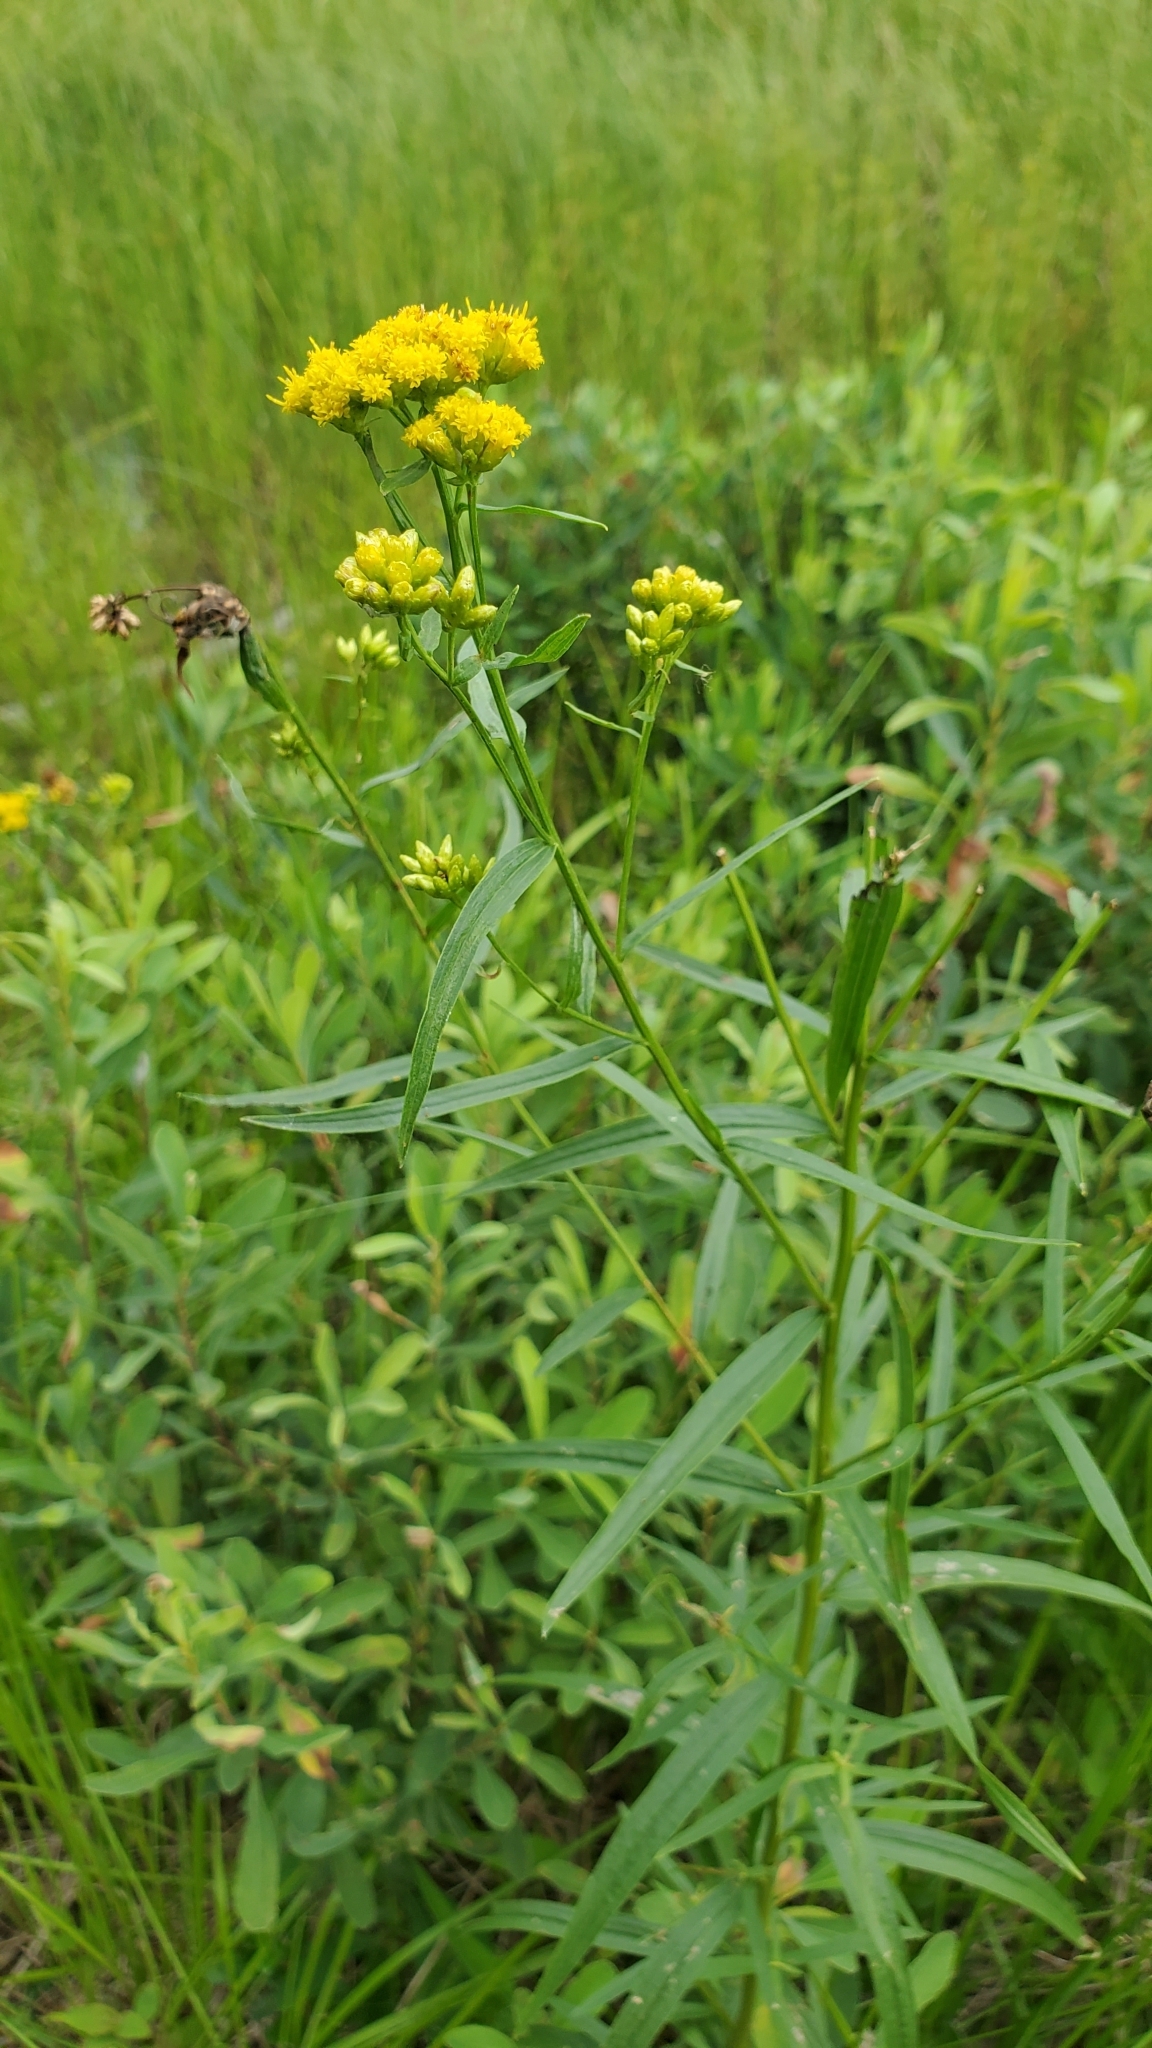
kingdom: Plantae
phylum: Tracheophyta
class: Magnoliopsida
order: Asterales
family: Asteraceae
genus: Euthamia
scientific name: Euthamia graminifolia
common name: Common goldentop
